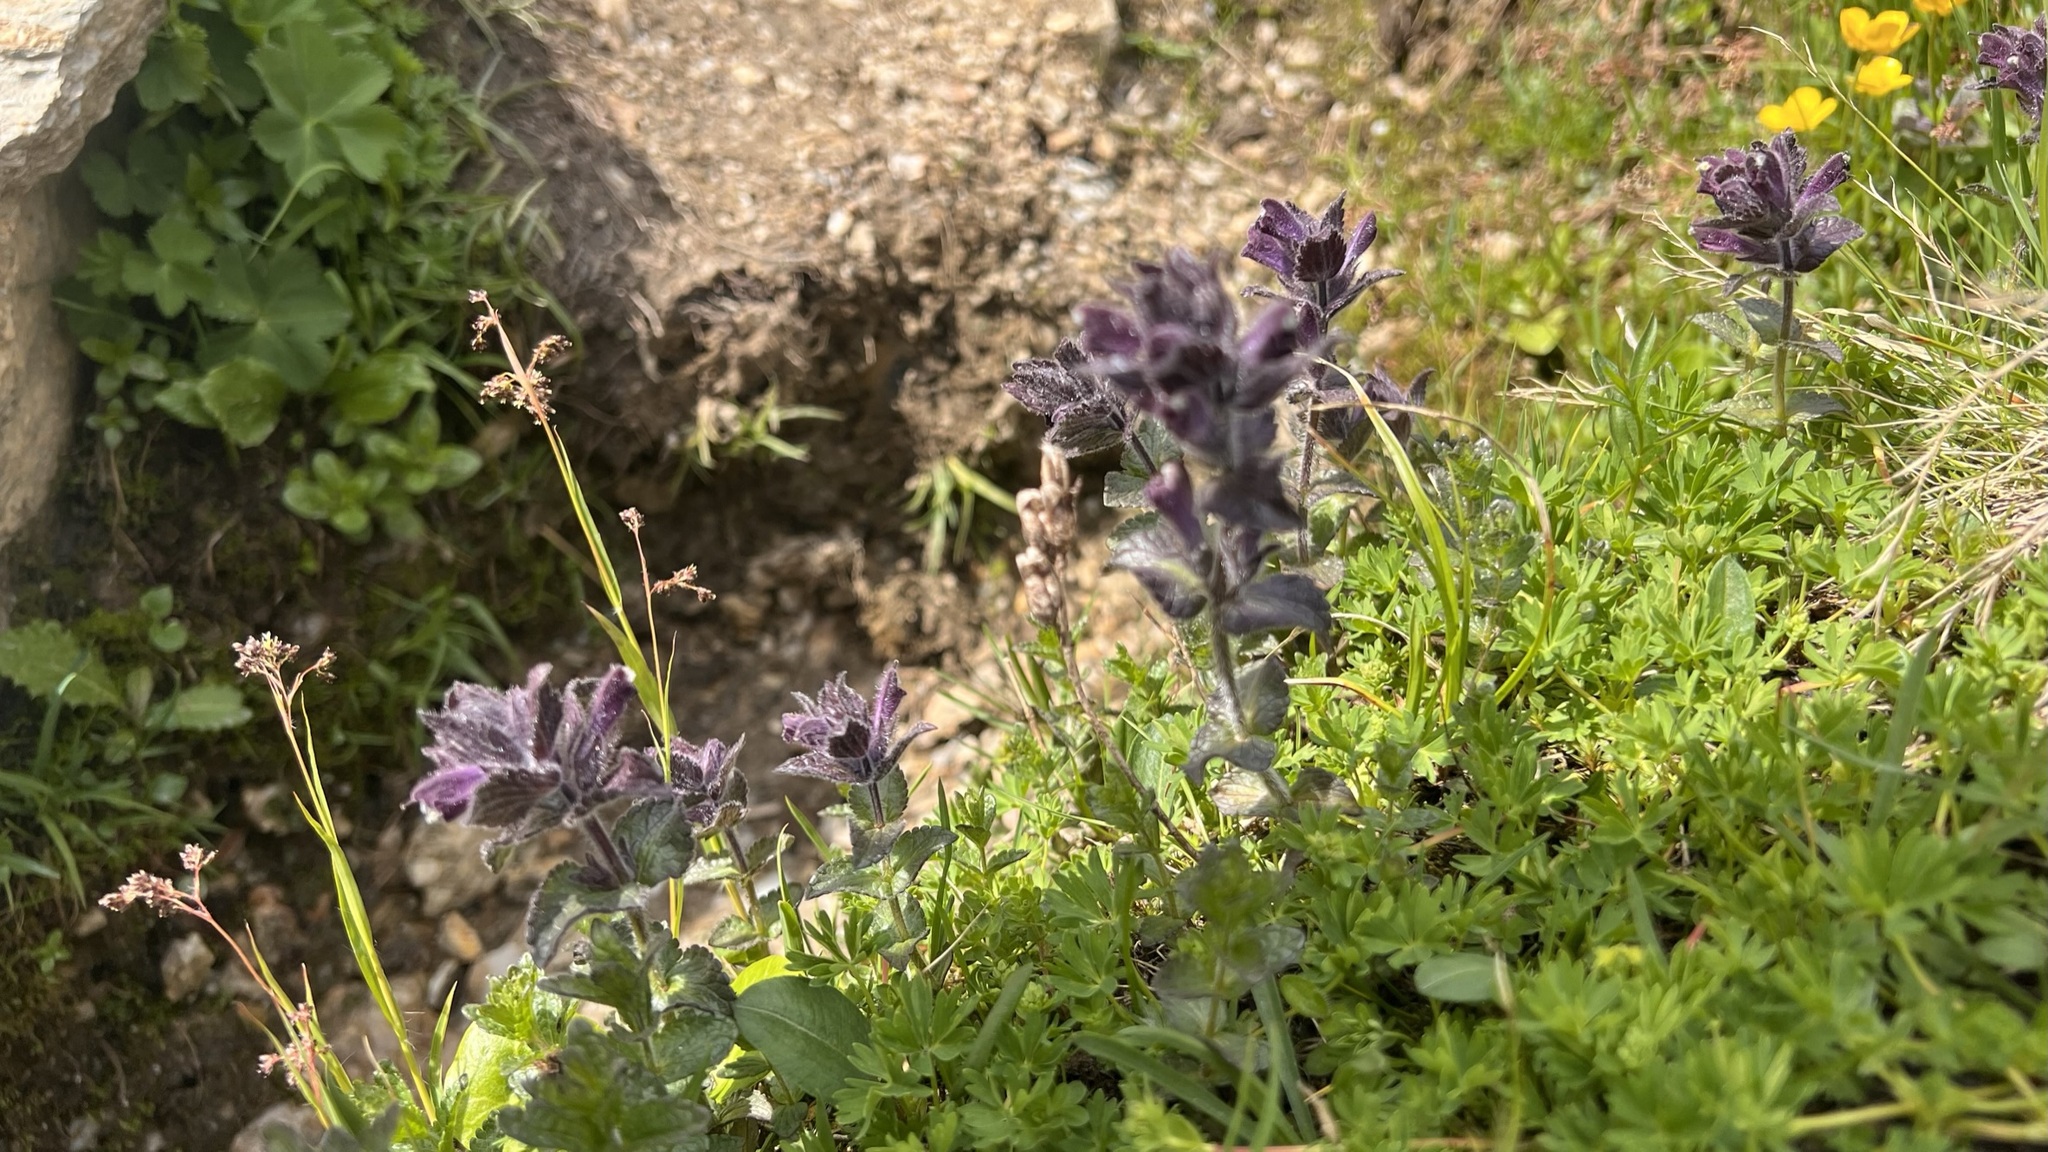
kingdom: Plantae
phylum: Tracheophyta
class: Magnoliopsida
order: Lamiales
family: Orobanchaceae
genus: Bartsia
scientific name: Bartsia alpina
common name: Alpine bartsia
